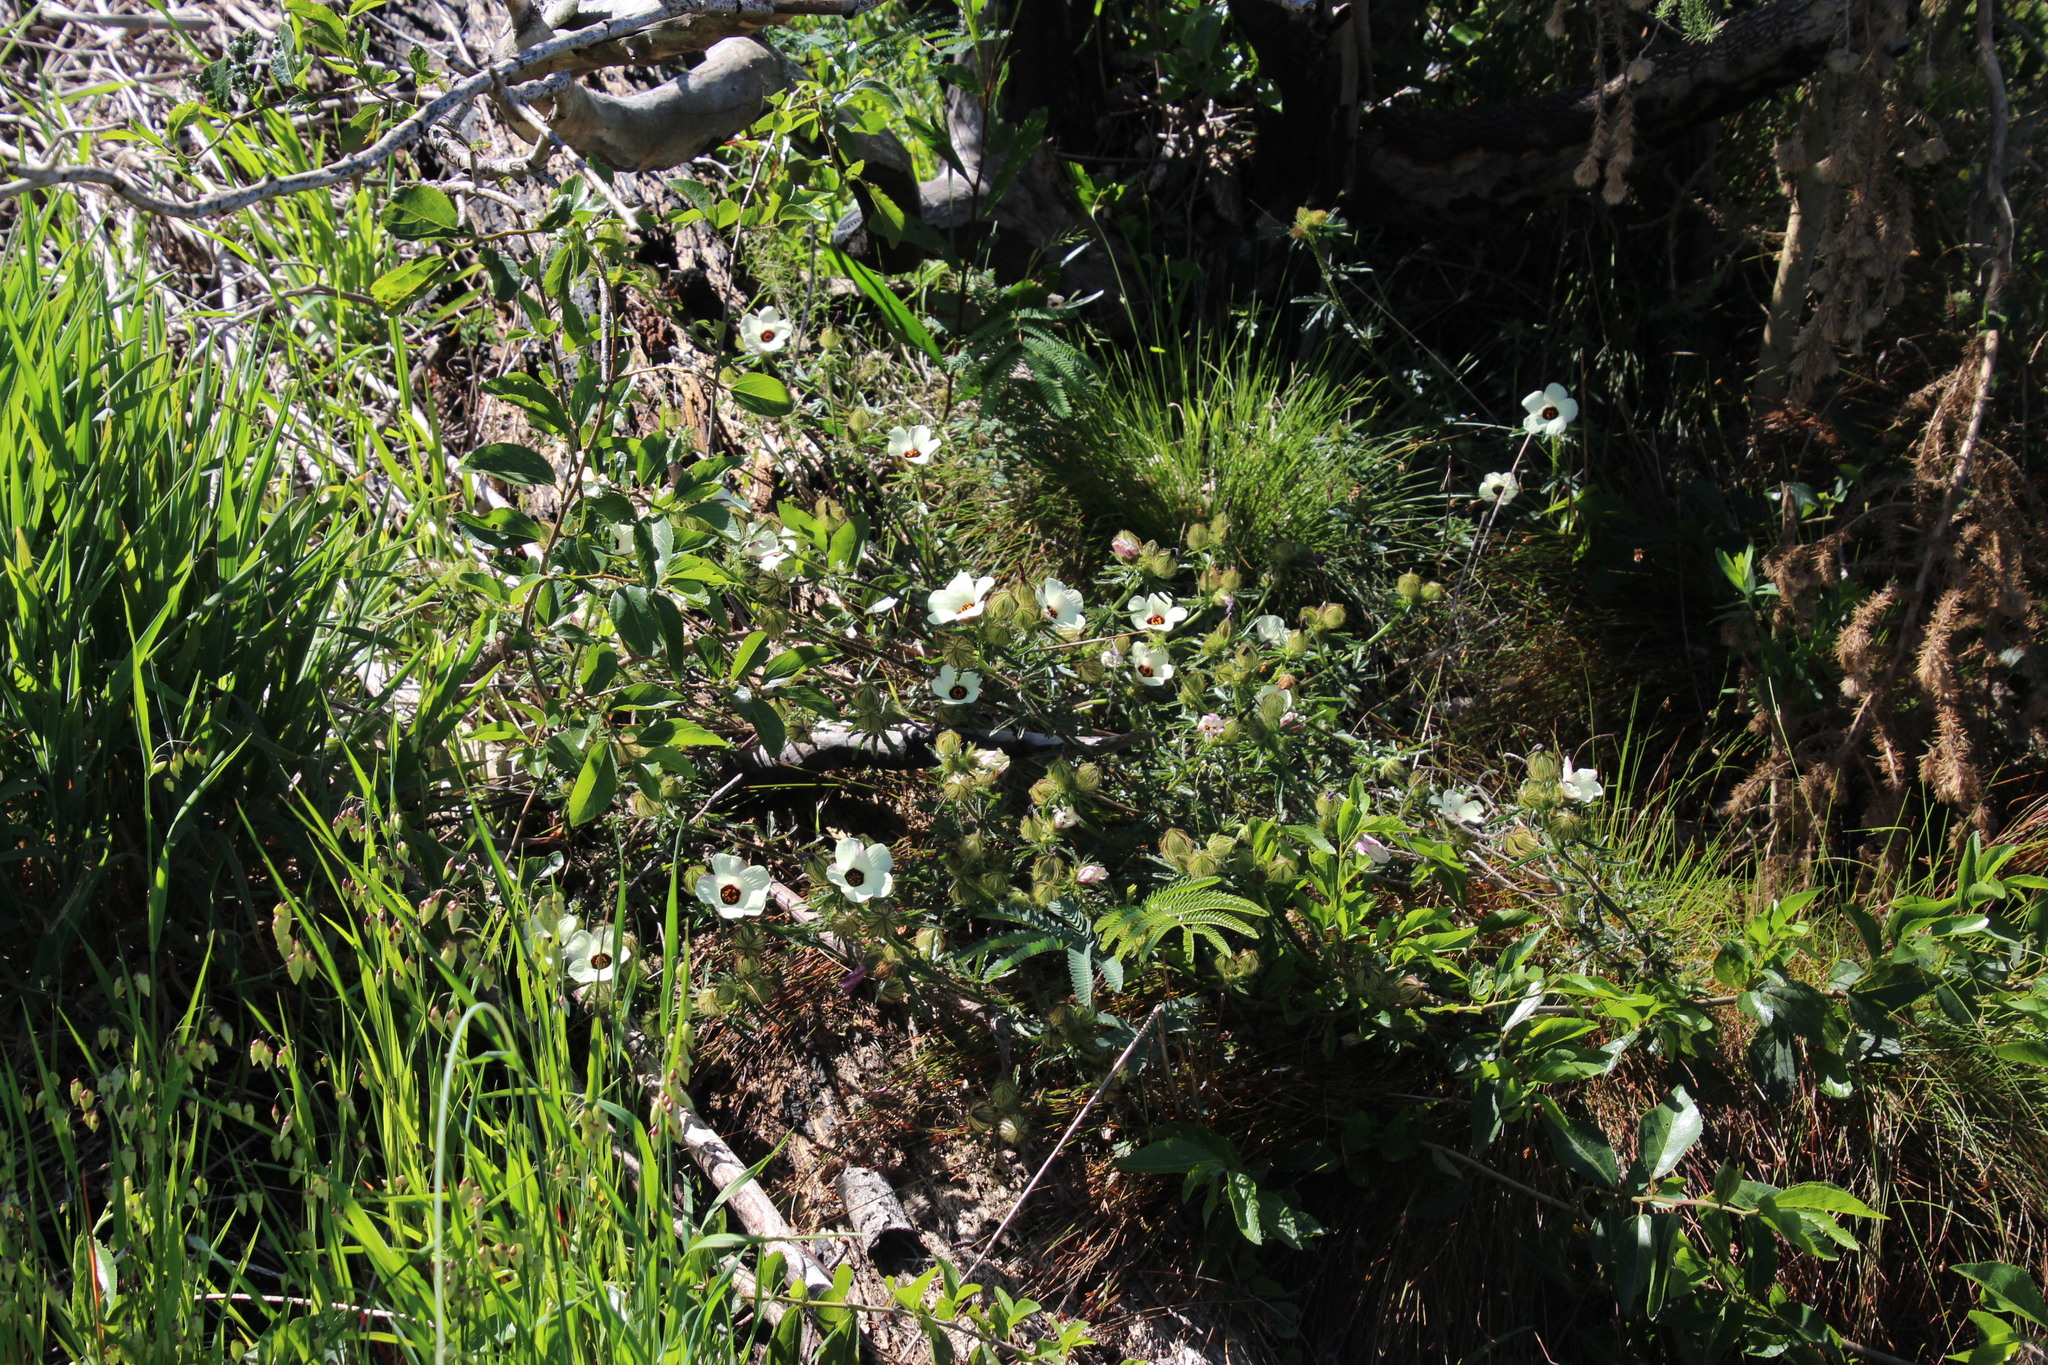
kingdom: Plantae
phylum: Tracheophyta
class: Magnoliopsida
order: Malvales
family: Malvaceae
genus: Hibiscus
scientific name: Hibiscus trionum
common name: Bladder ketmia
